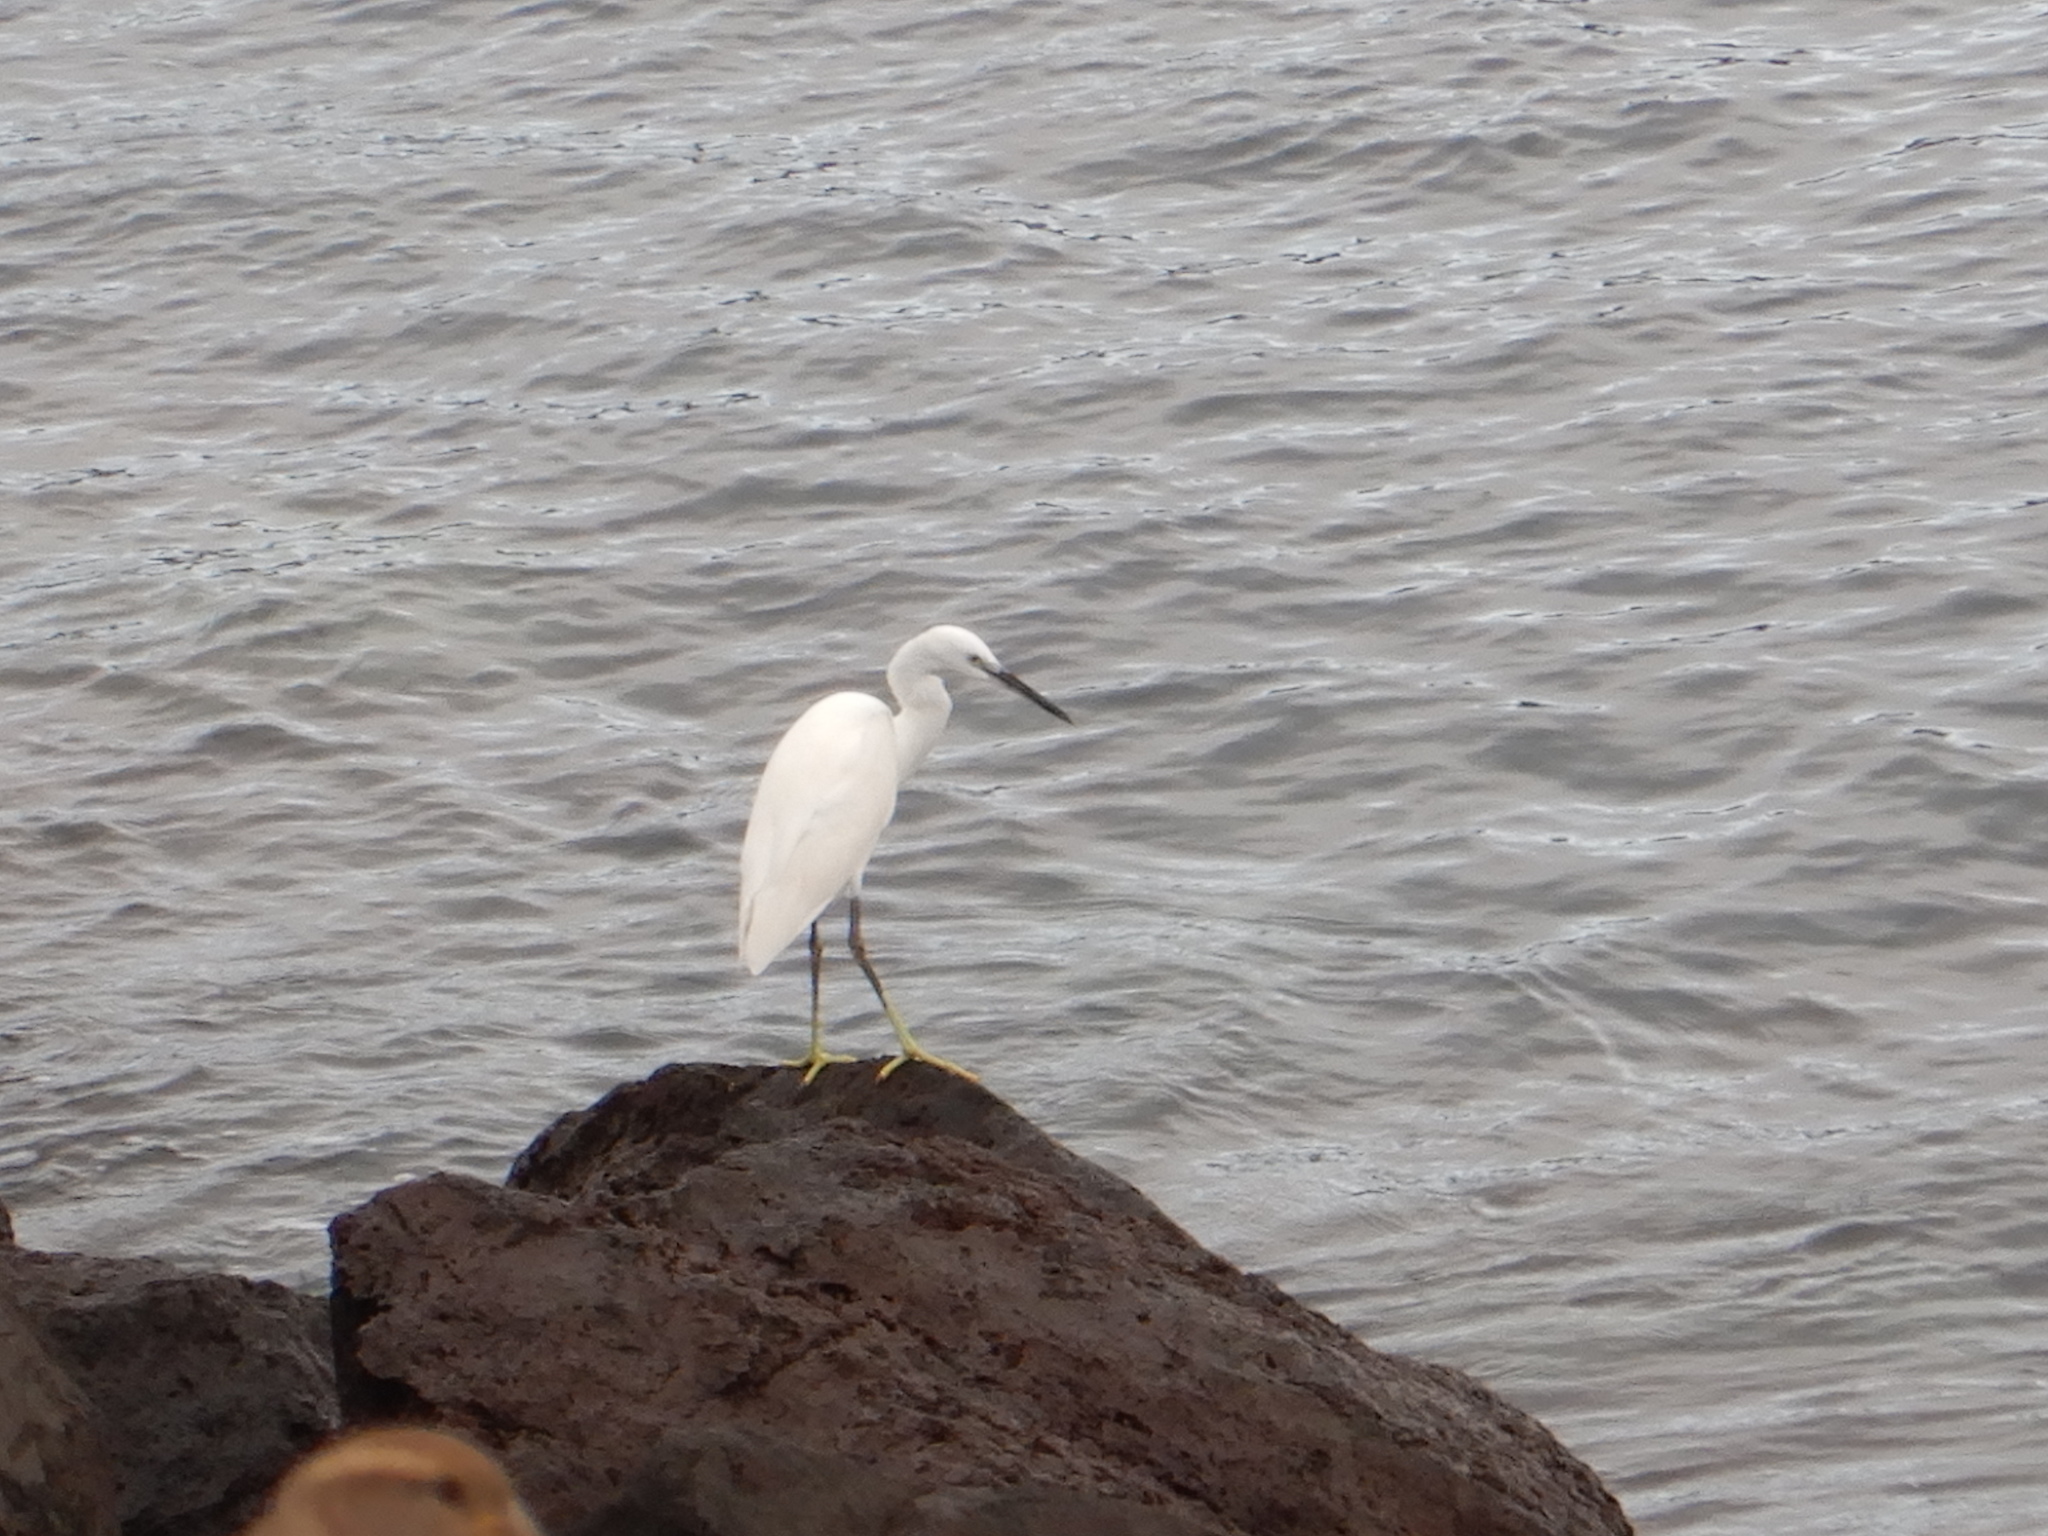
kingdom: Animalia
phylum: Chordata
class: Aves
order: Pelecaniformes
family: Ardeidae
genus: Egretta
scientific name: Egretta garzetta
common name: Little egret
